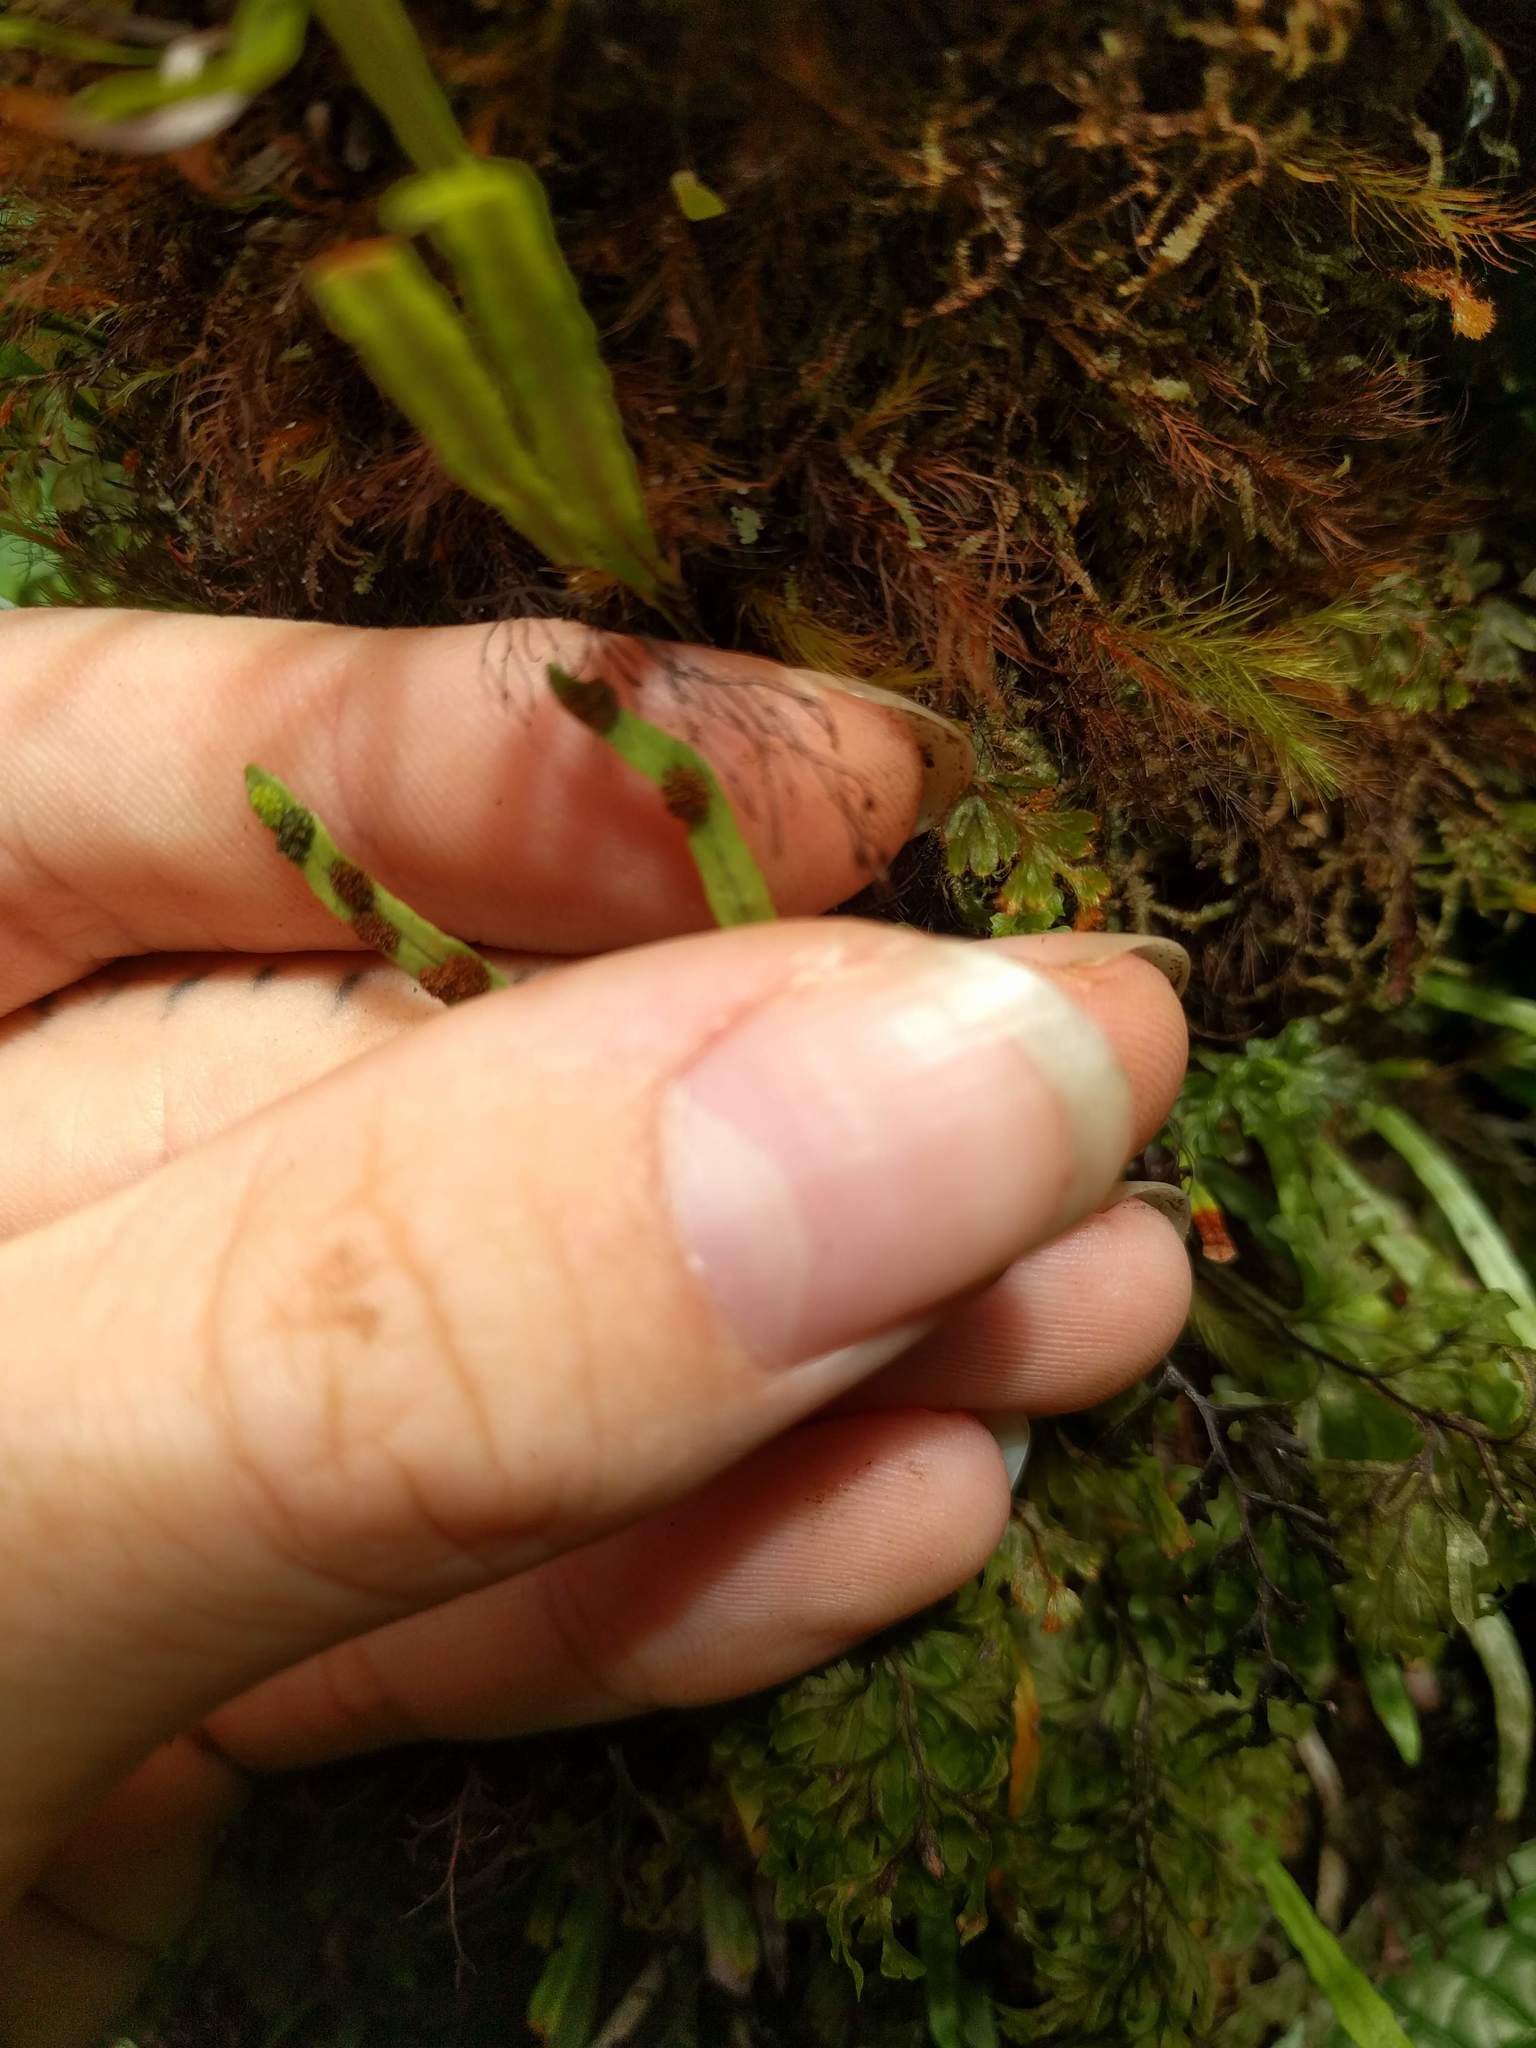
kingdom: Plantae
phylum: Tracheophyta
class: Polypodiopsida
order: Polypodiales
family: Polypodiaceae
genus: Adenophorus
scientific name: Adenophorus tenellus
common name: Kolokolo
